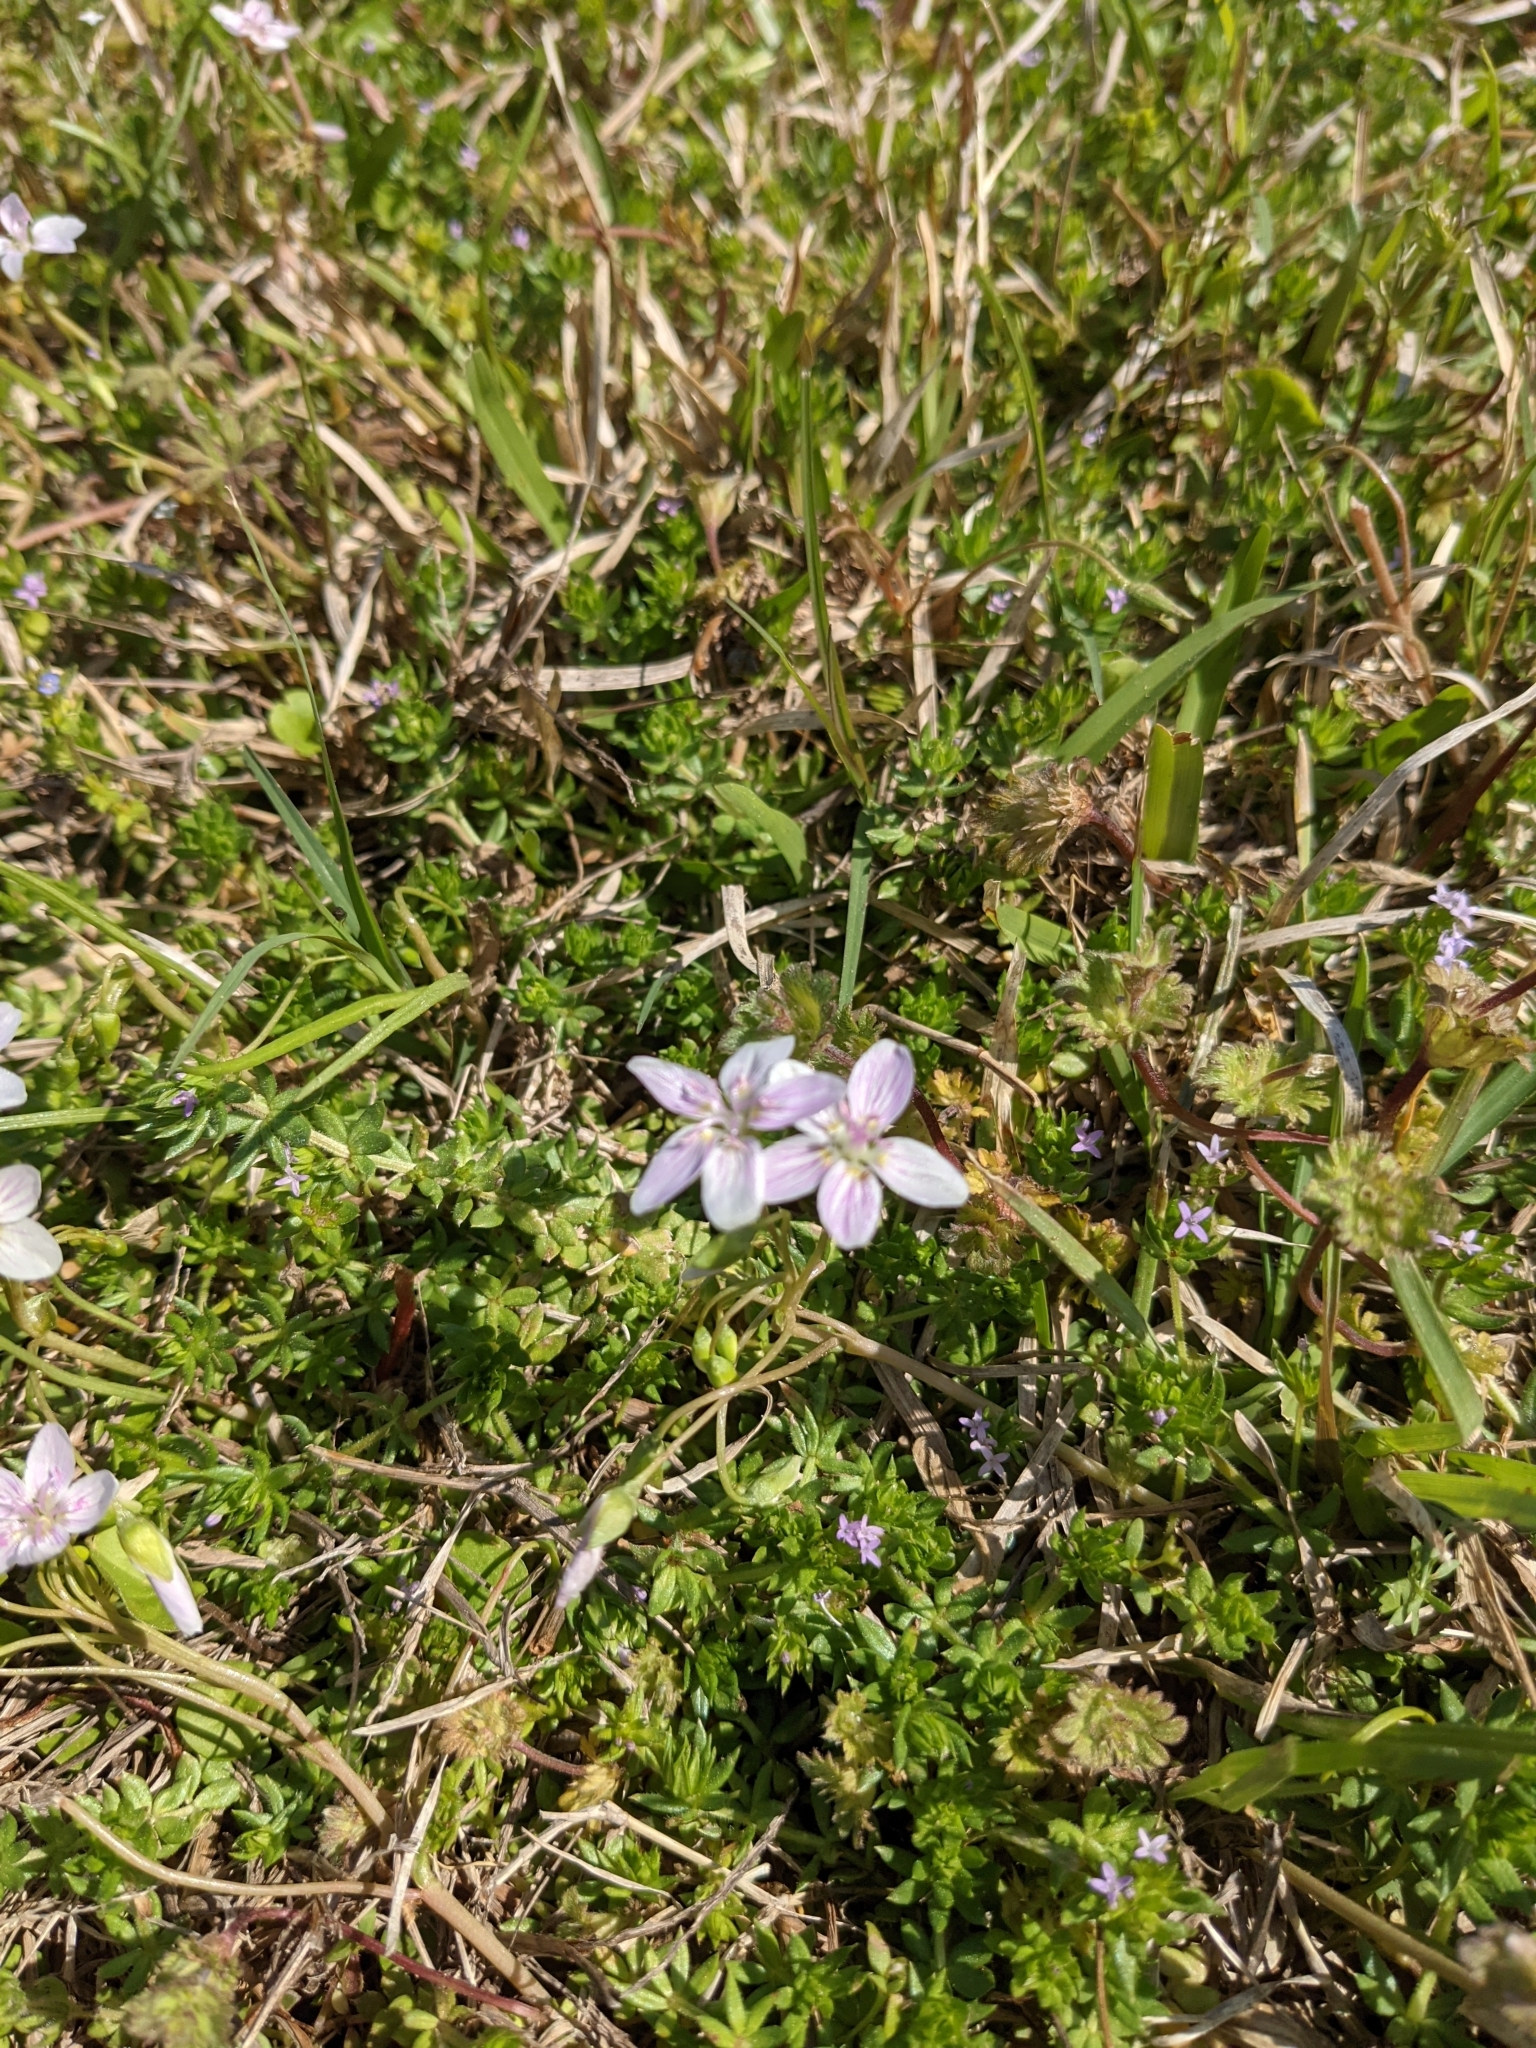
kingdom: Plantae
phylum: Tracheophyta
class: Magnoliopsida
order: Caryophyllales
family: Montiaceae
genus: Claytonia
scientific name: Claytonia virginica
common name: Virginia springbeauty
